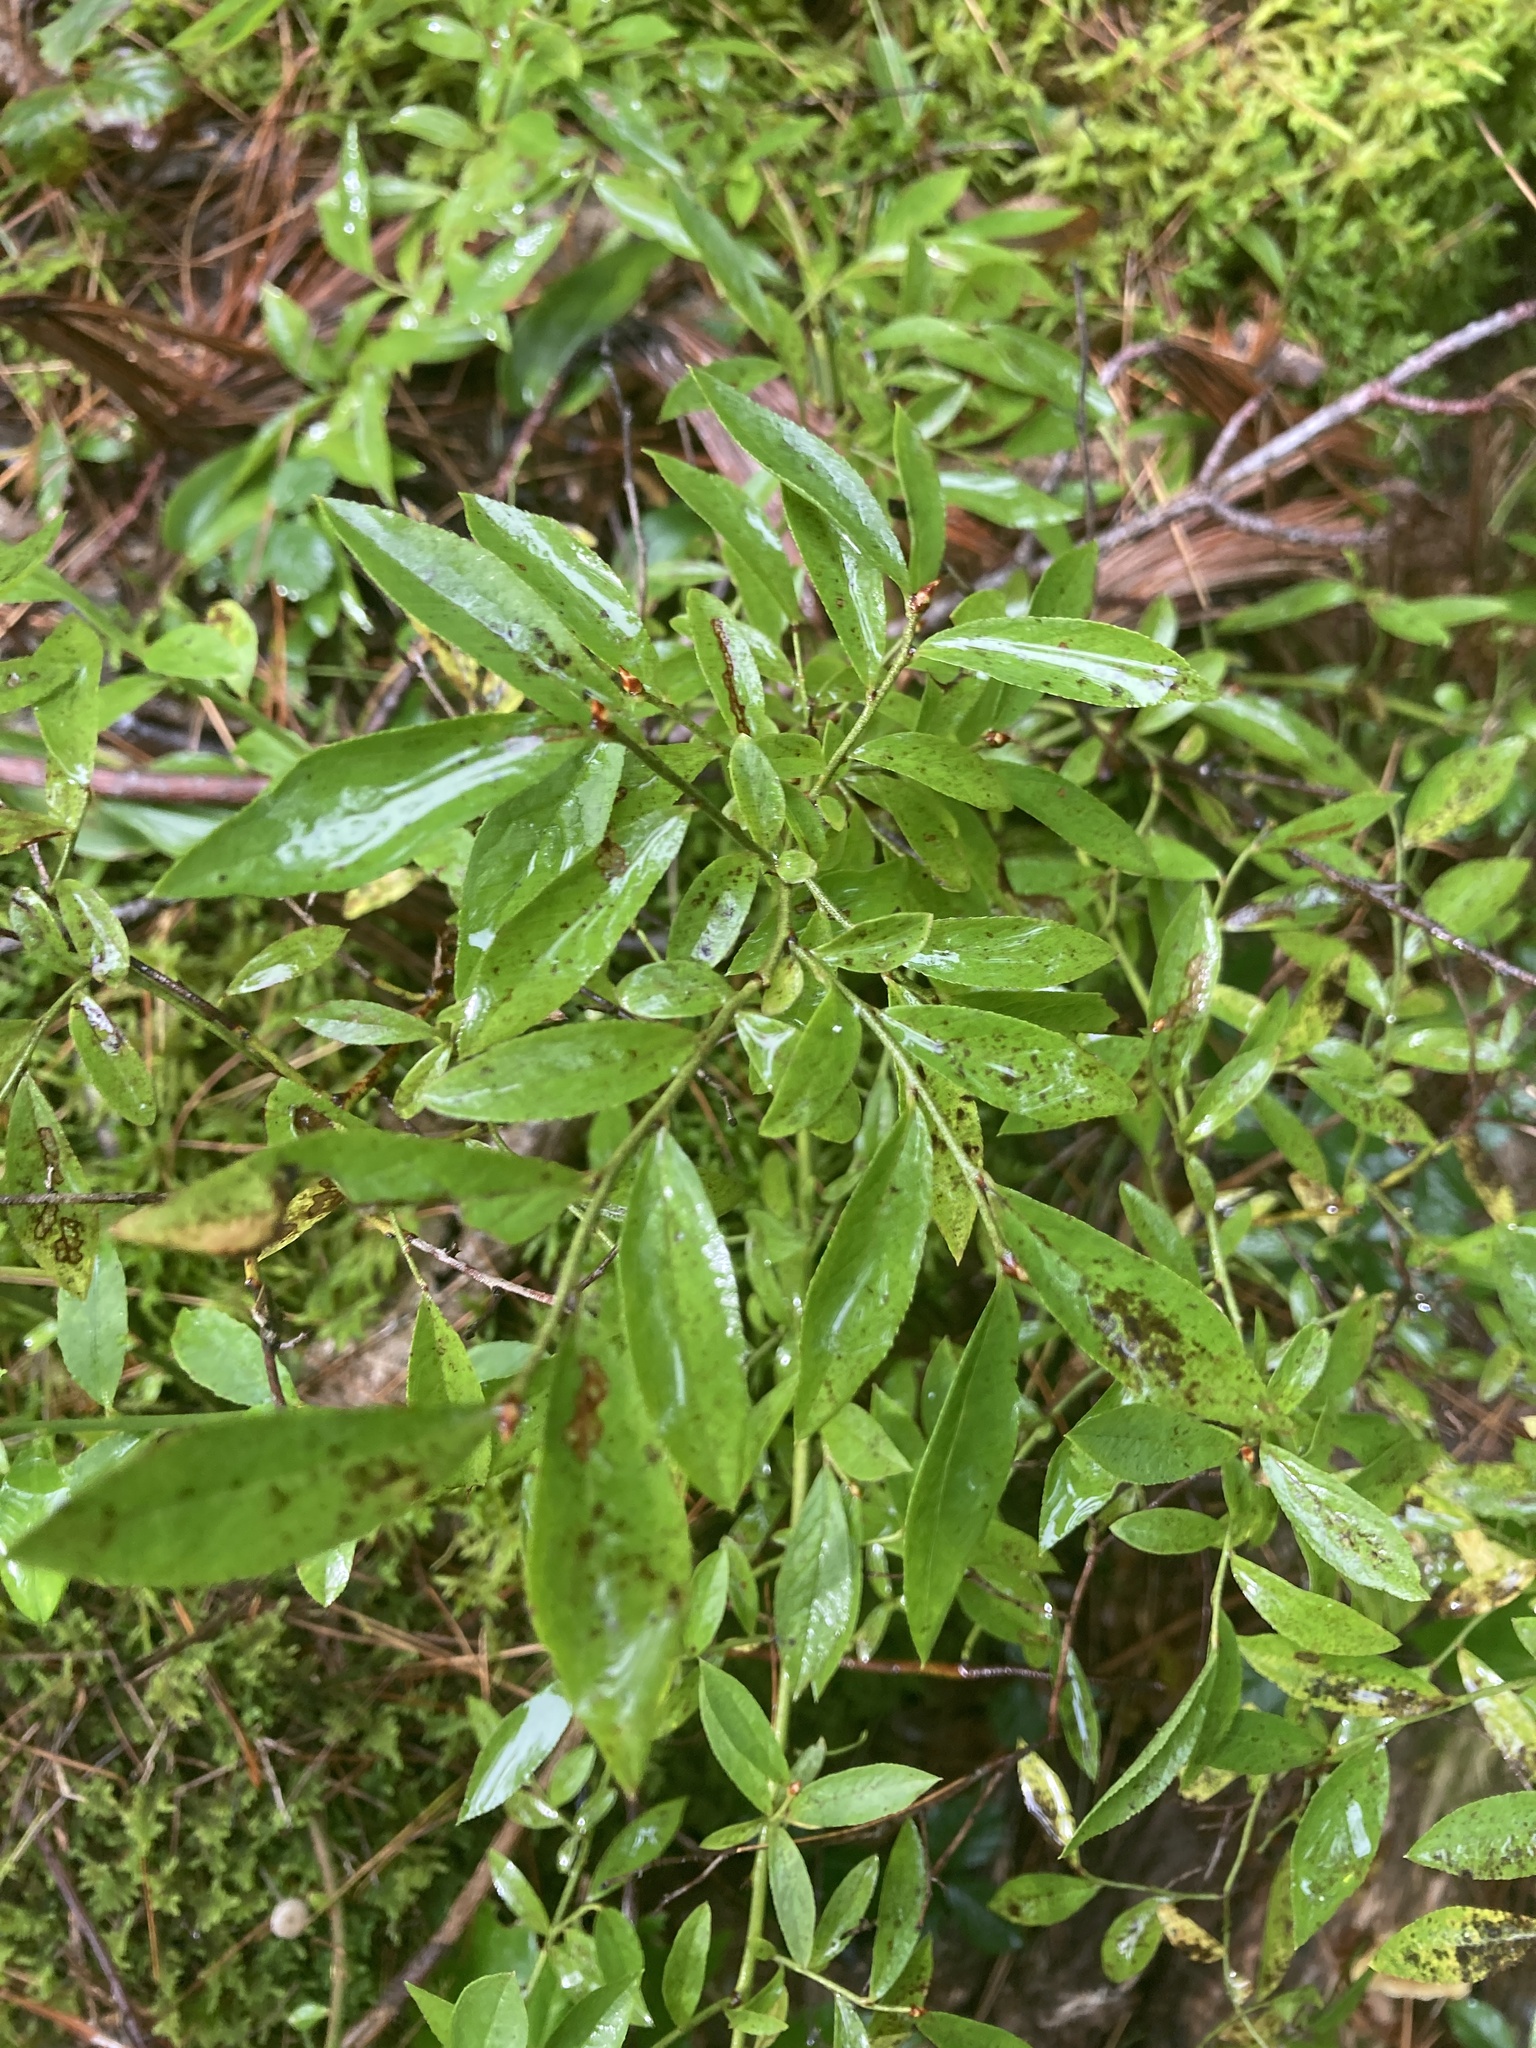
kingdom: Plantae
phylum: Tracheophyta
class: Magnoliopsida
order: Ericales
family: Ericaceae
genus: Vaccinium
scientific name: Vaccinium angustifolium
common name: Early lowbush blueberry
